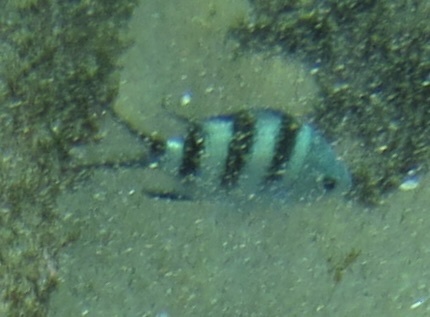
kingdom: Animalia
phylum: Chordata
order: Perciformes
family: Pomacentridae
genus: Abudefduf
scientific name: Abudefduf natalensis
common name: Natal sergeant
